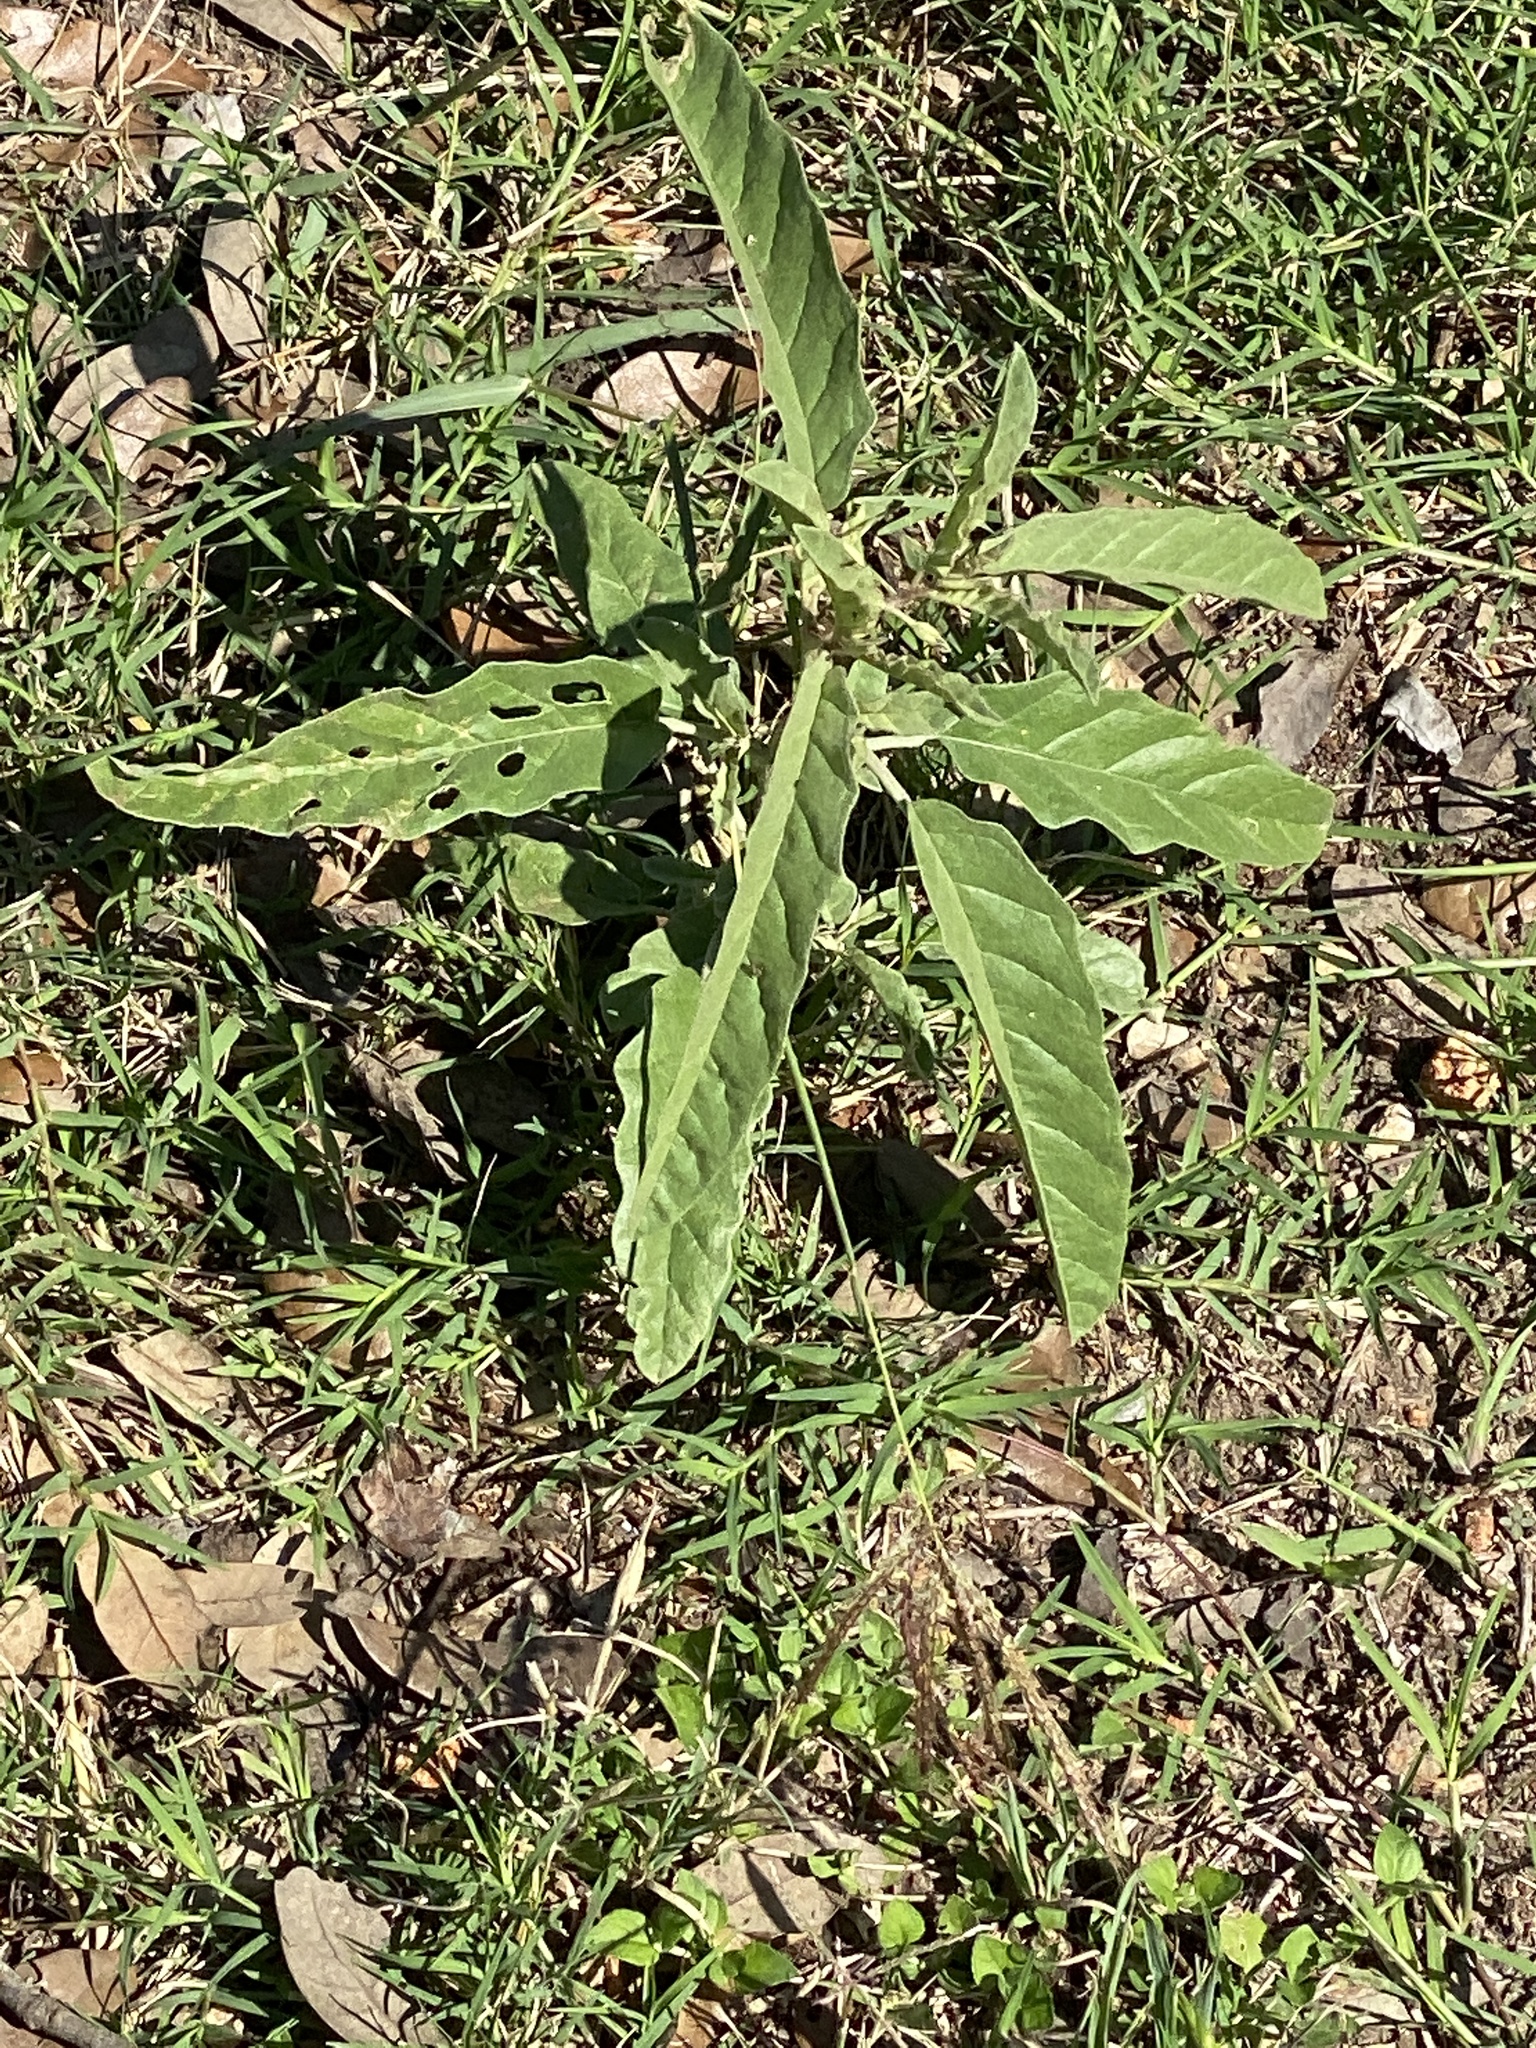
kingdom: Plantae
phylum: Tracheophyta
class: Magnoliopsida
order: Solanales
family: Solanaceae
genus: Solanum
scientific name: Solanum elaeagnifolium
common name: Silverleaf nightshade
